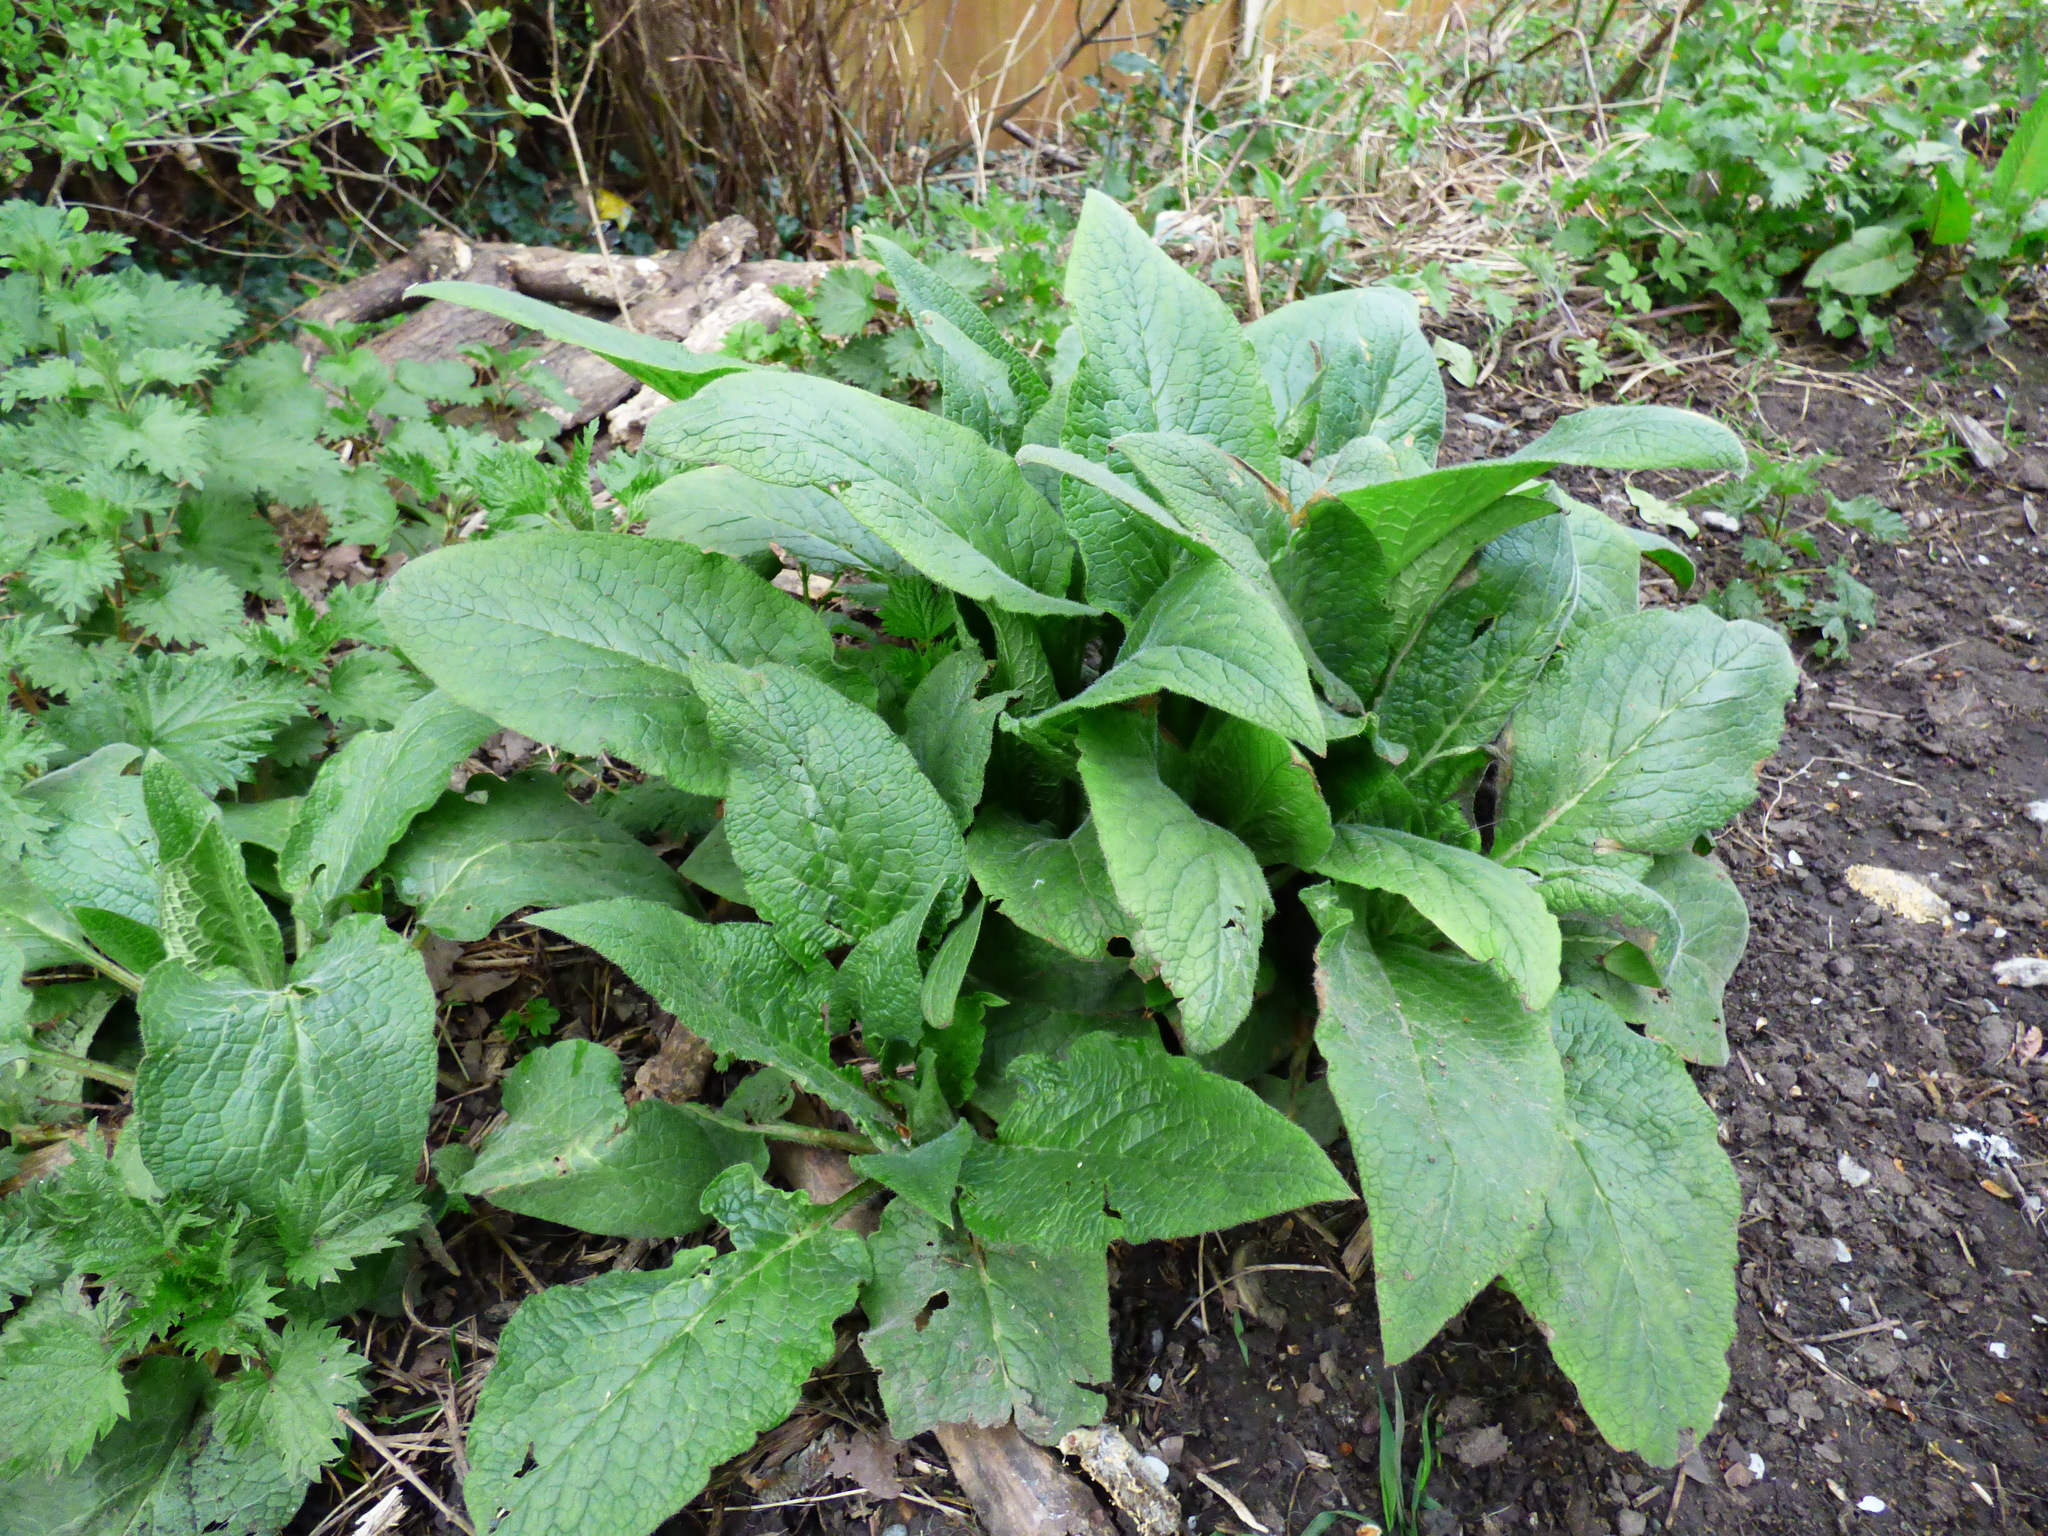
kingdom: Plantae
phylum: Tracheophyta
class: Magnoliopsida
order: Lamiales
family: Plantaginaceae
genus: Digitalis
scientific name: Digitalis purpurea
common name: Foxglove
